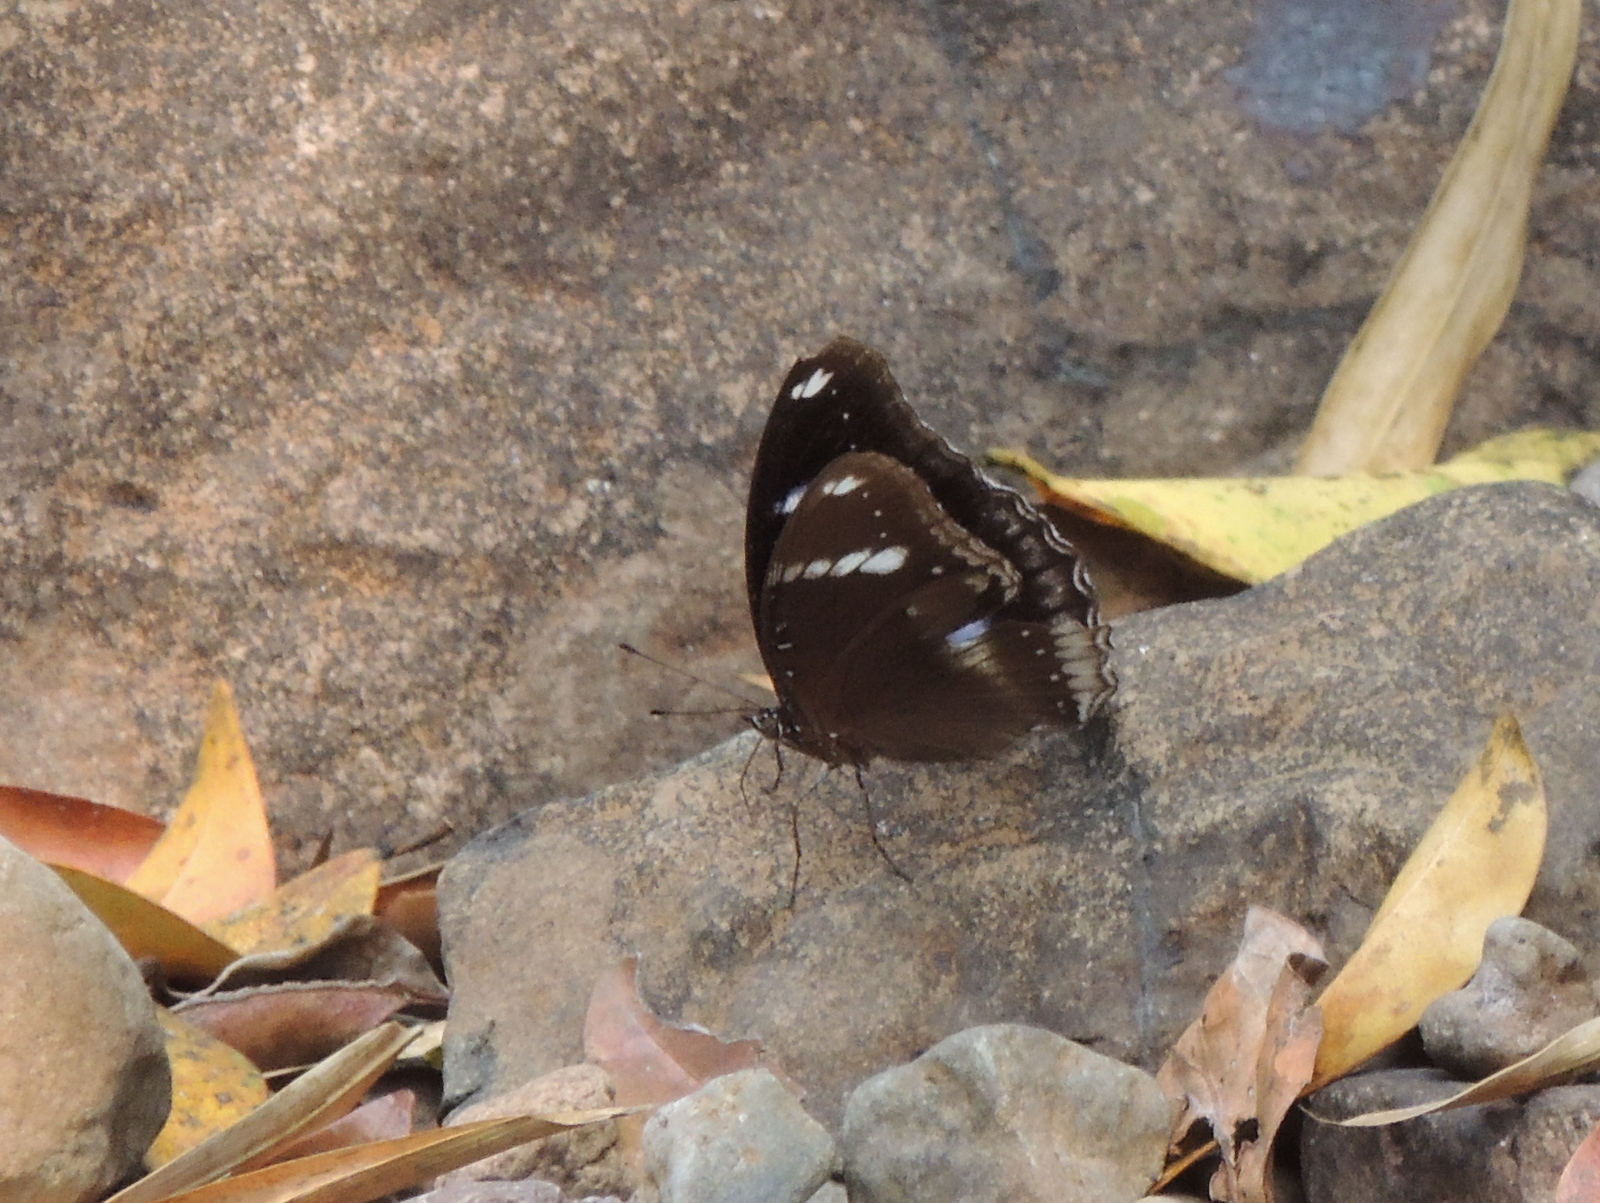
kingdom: Animalia
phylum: Arthropoda
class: Insecta
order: Lepidoptera
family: Nymphalidae
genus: Hypolimnas
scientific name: Hypolimnas bolina
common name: Great eggfly
